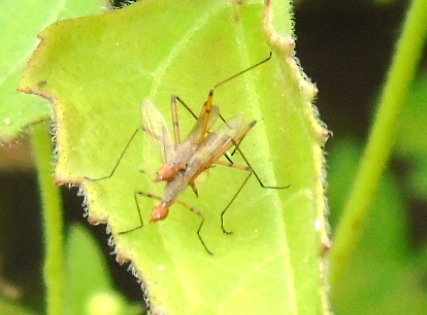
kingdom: Animalia
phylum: Arthropoda
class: Insecta
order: Diptera
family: Micropezidae
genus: Micropeza
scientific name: Micropeza
